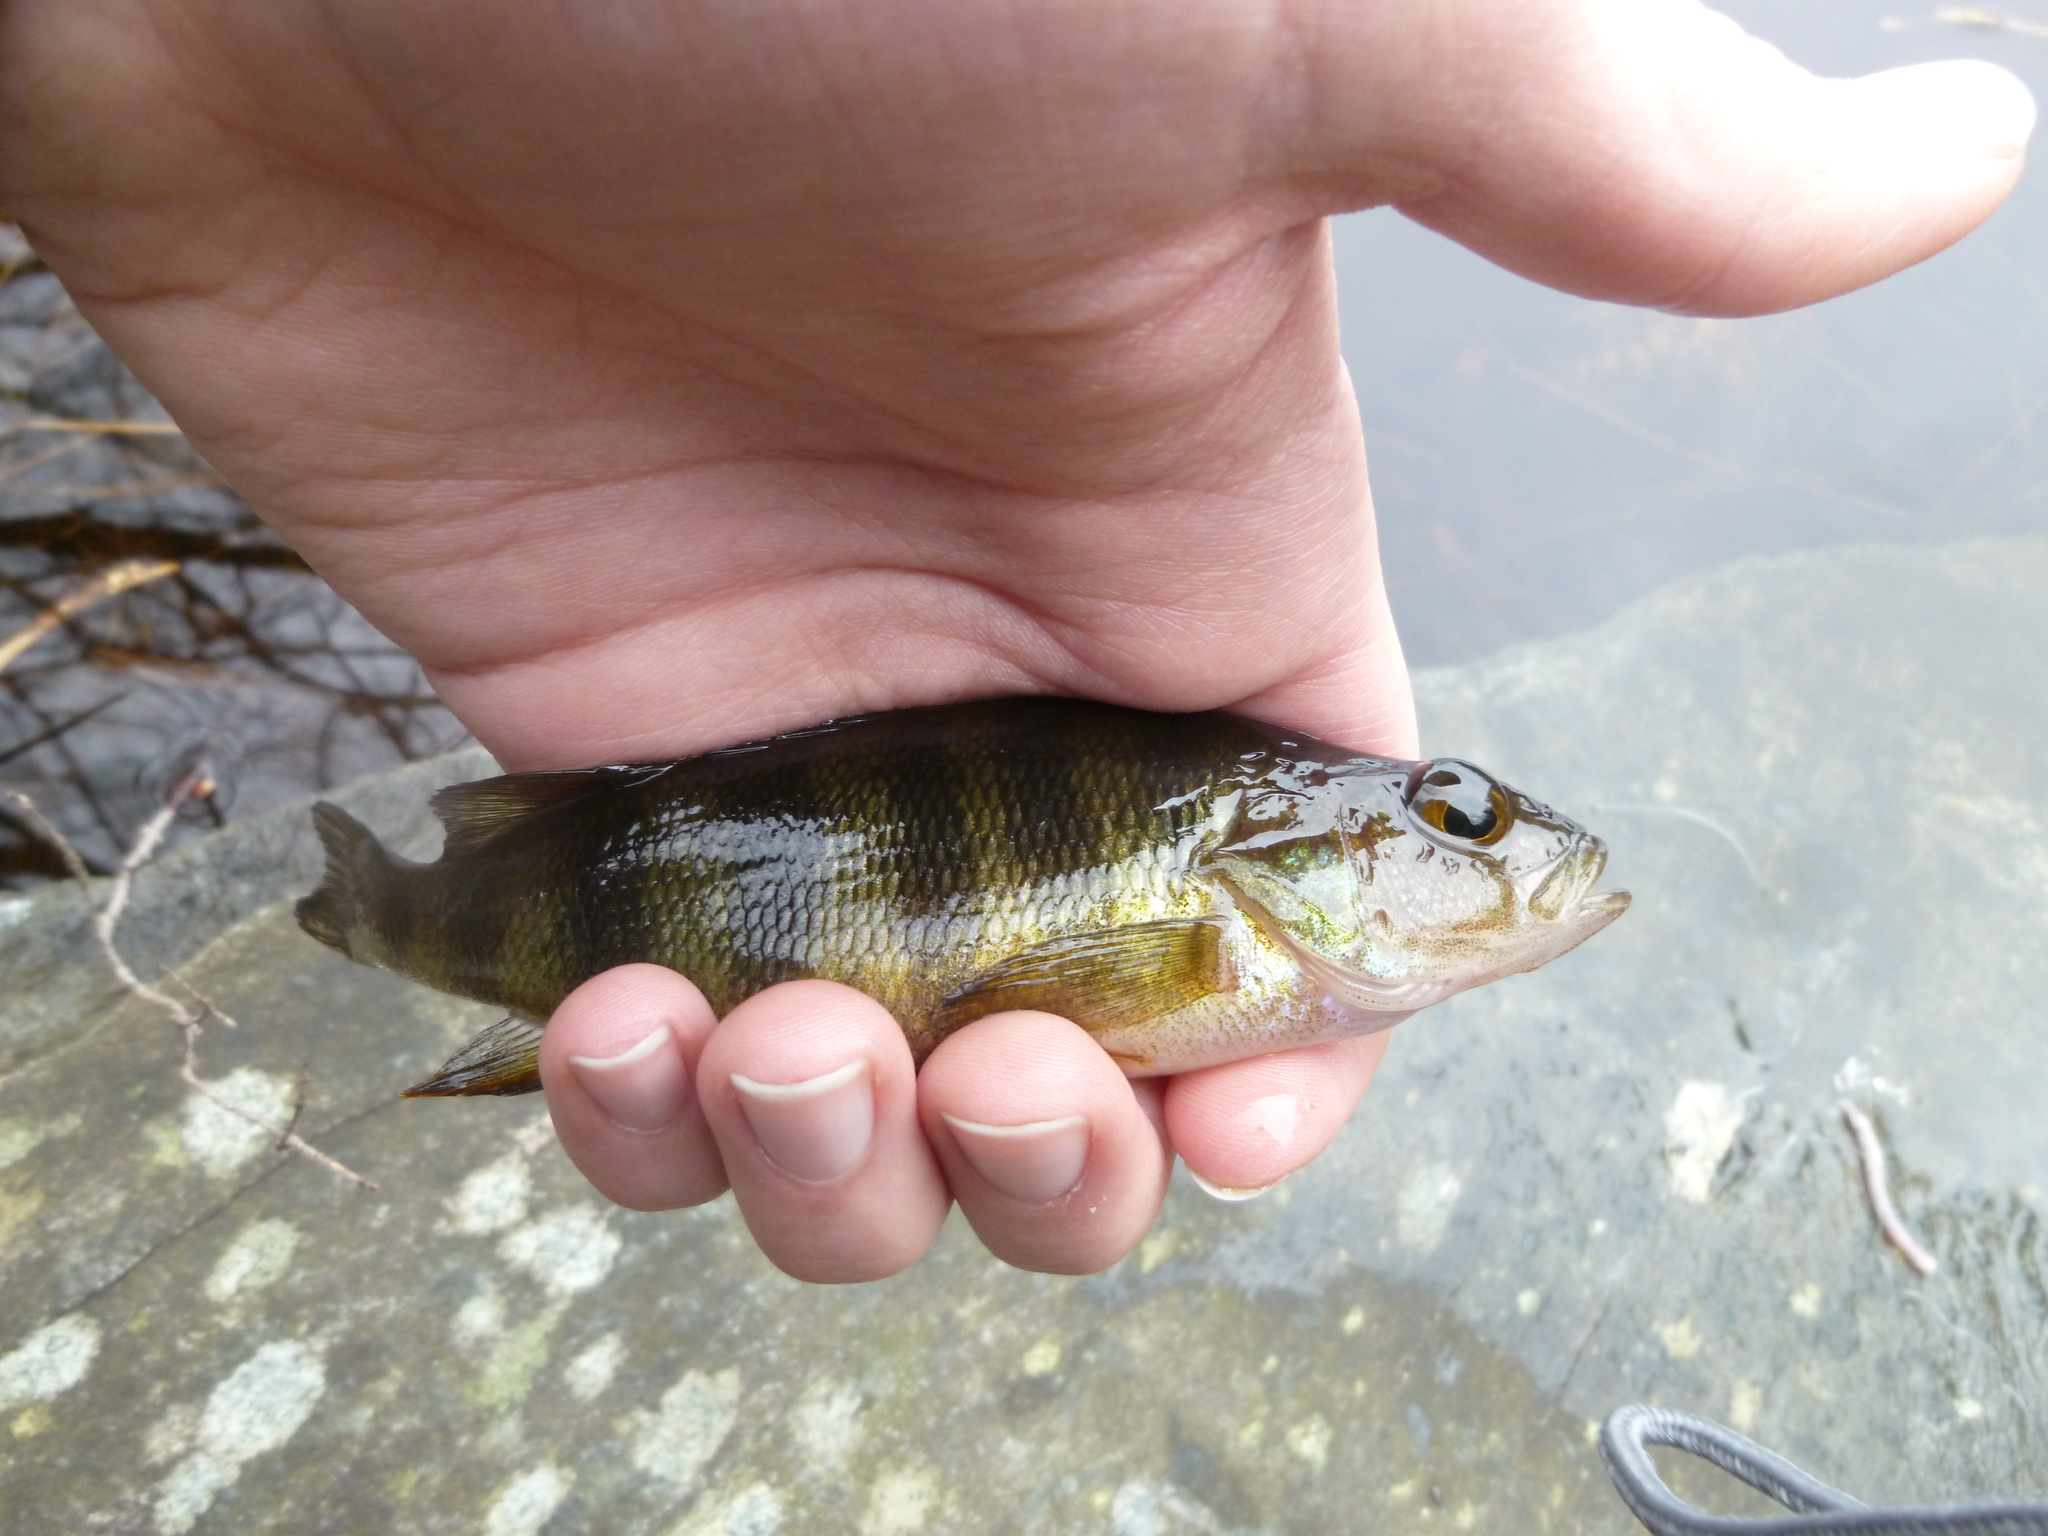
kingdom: Animalia
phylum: Chordata
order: Perciformes
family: Percidae
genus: Perca
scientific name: Perca flavescens
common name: Yellow perch
